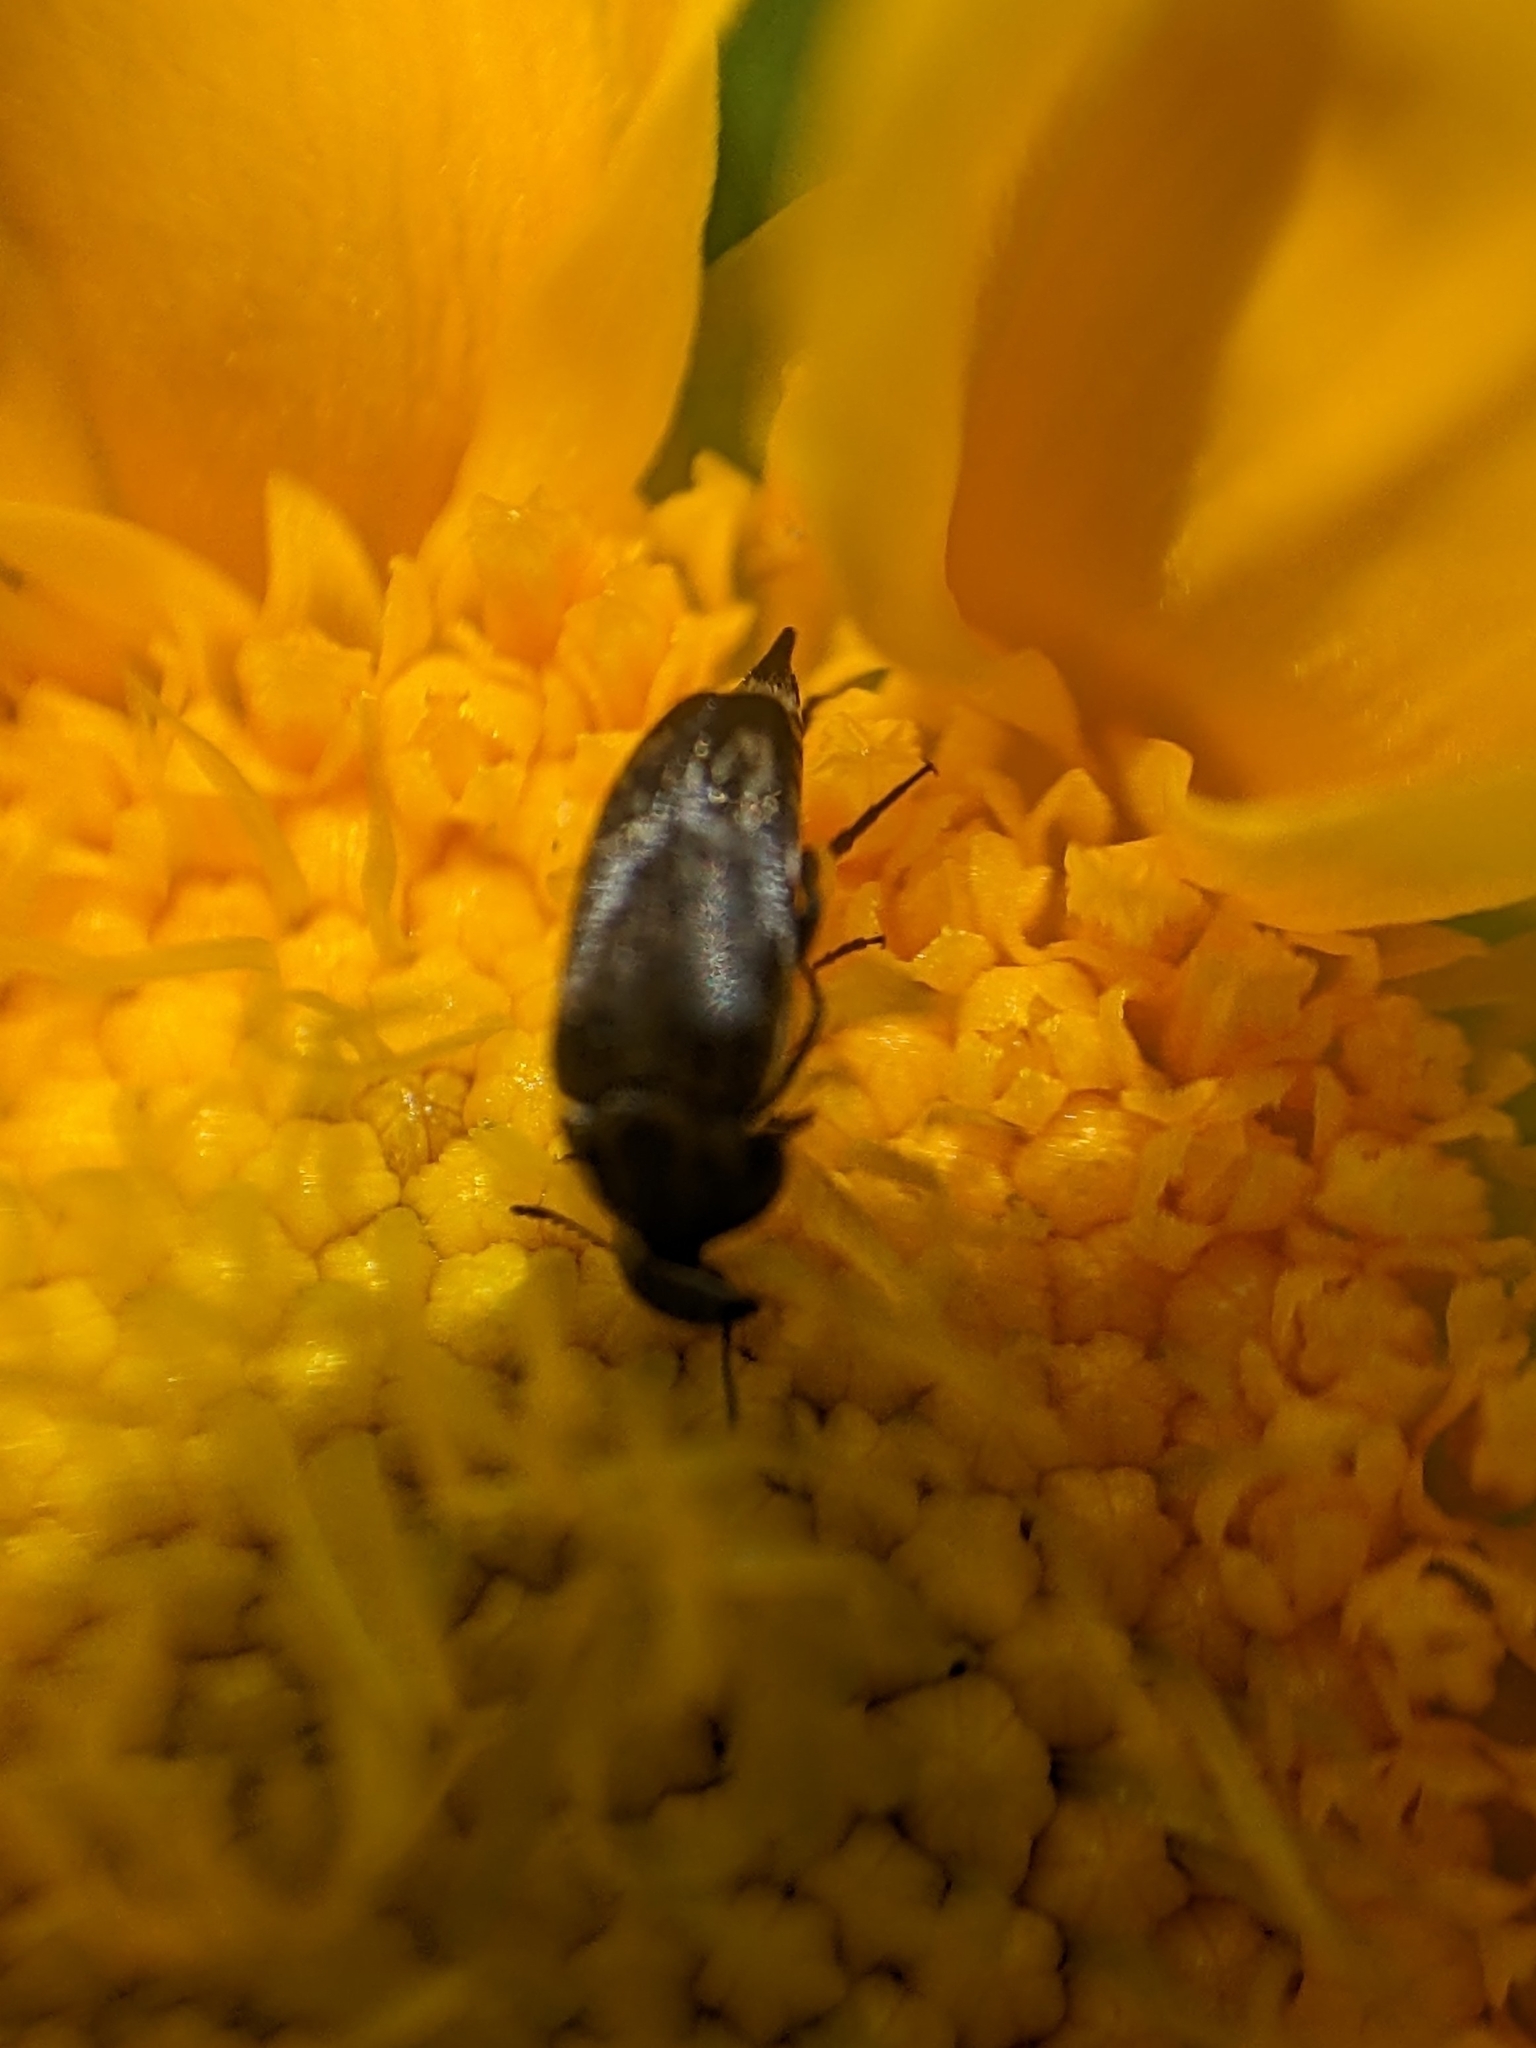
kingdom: Animalia
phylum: Arthropoda
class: Insecta
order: Coleoptera
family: Mordellidae
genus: Mordella
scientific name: Mordella marginata
